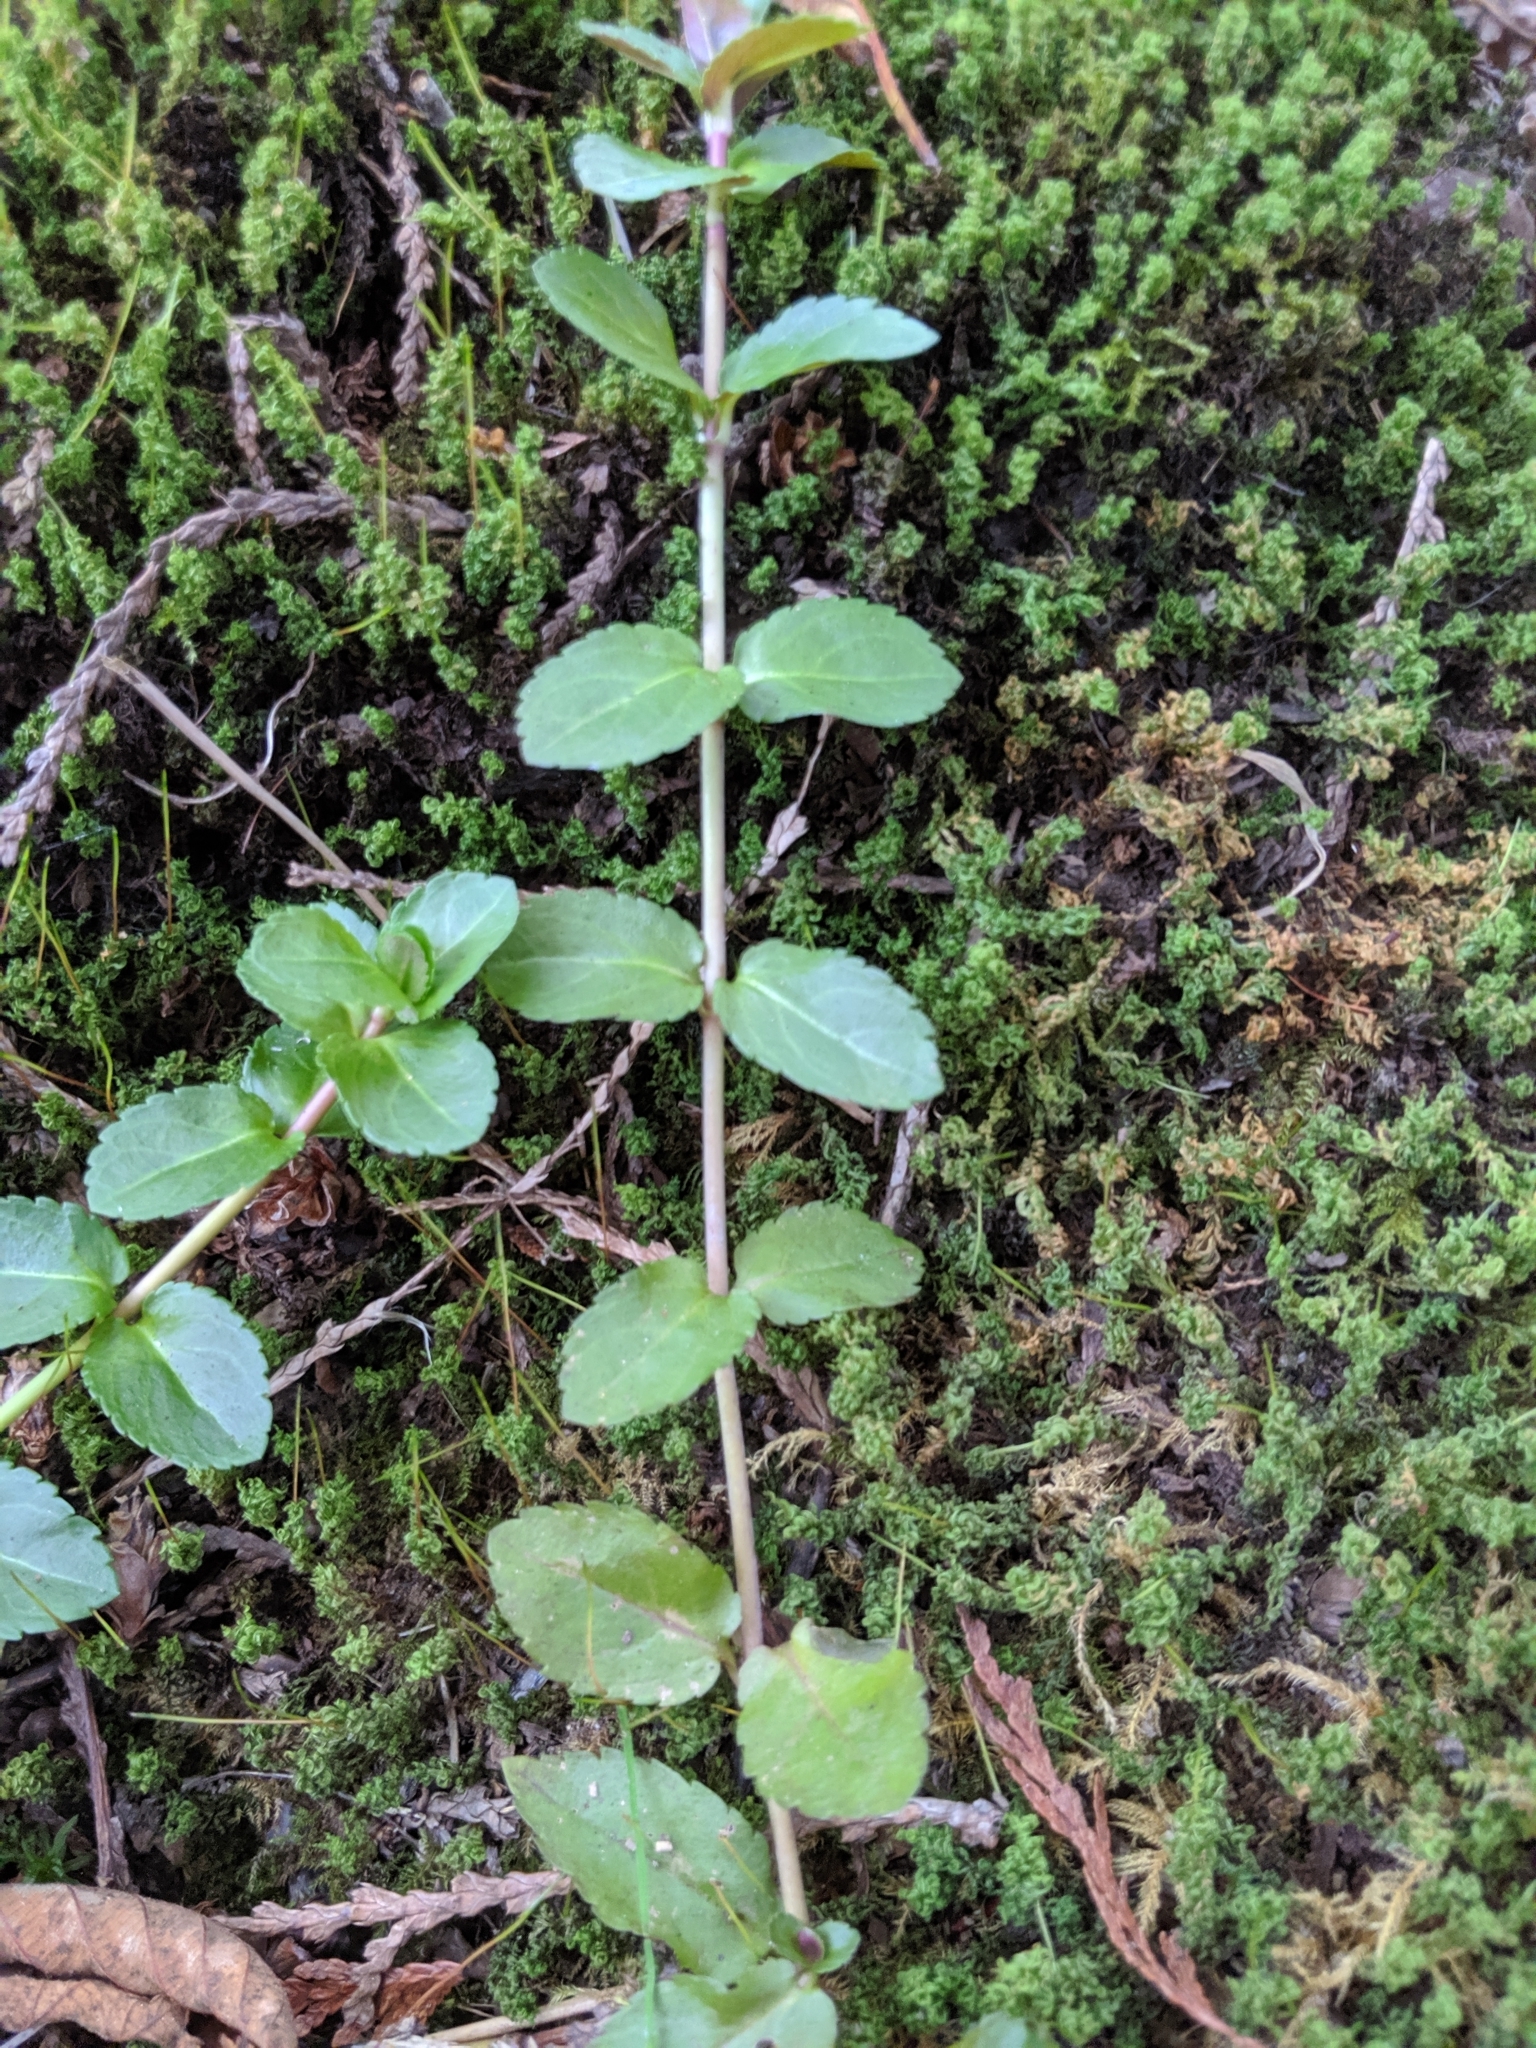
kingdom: Plantae
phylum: Tracheophyta
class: Magnoliopsida
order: Lamiales
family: Plantaginaceae
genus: Veronica
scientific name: Veronica americana
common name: American brooklime
